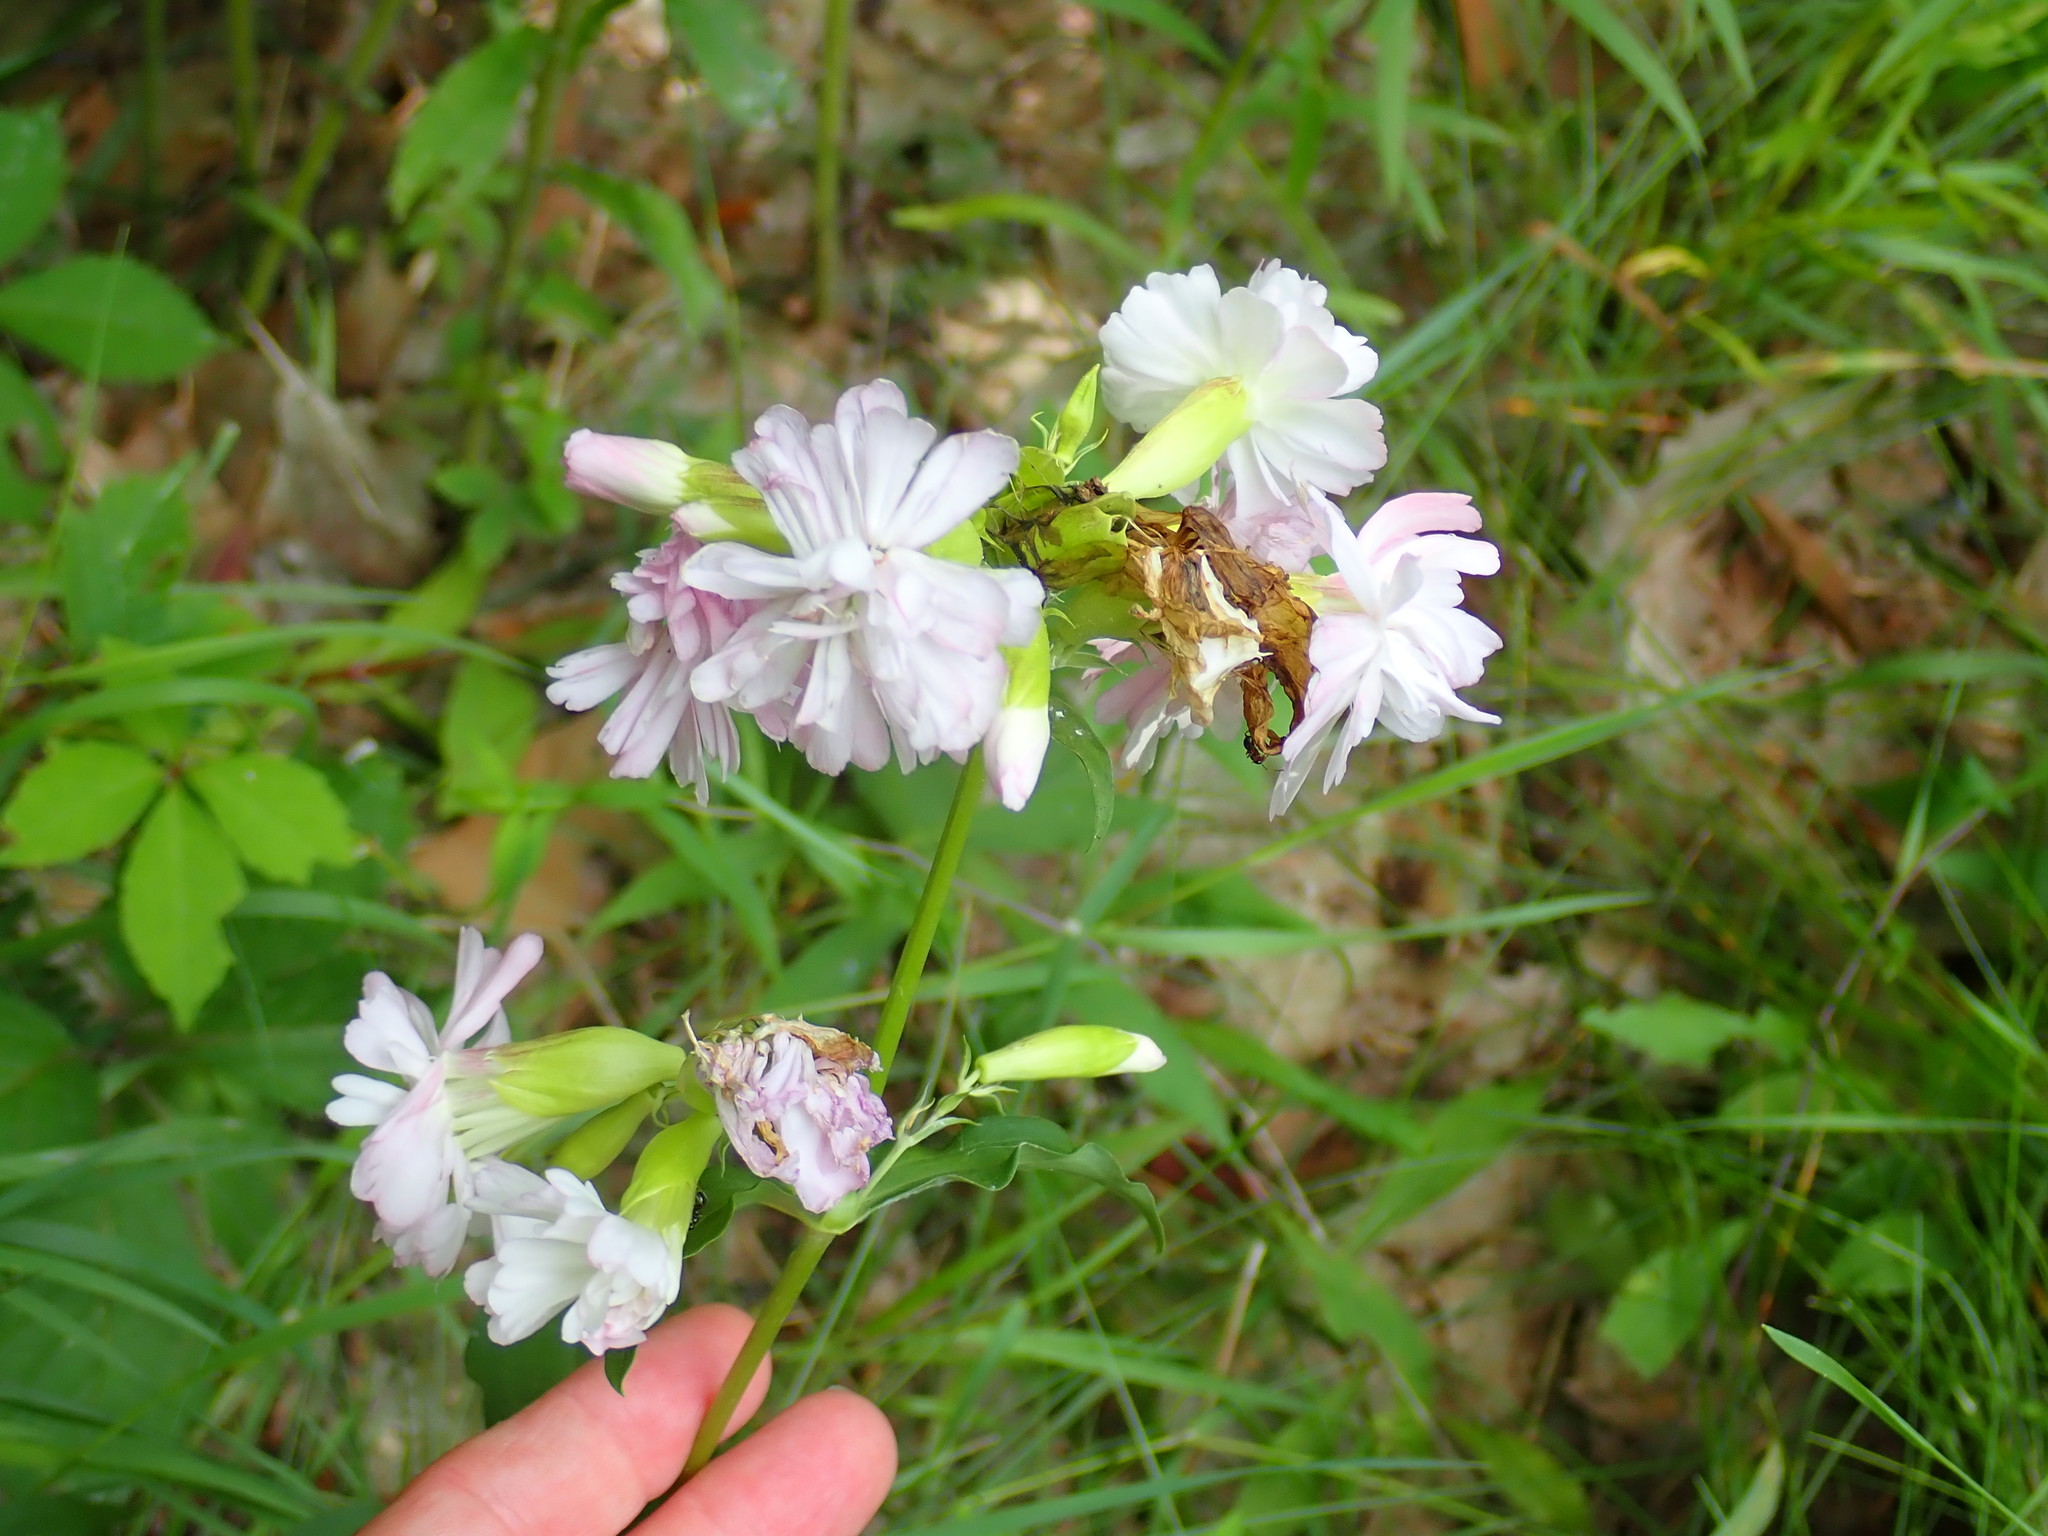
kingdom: Plantae
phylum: Tracheophyta
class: Magnoliopsida
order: Caryophyllales
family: Caryophyllaceae
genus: Saponaria
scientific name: Saponaria officinalis
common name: Soapwort
